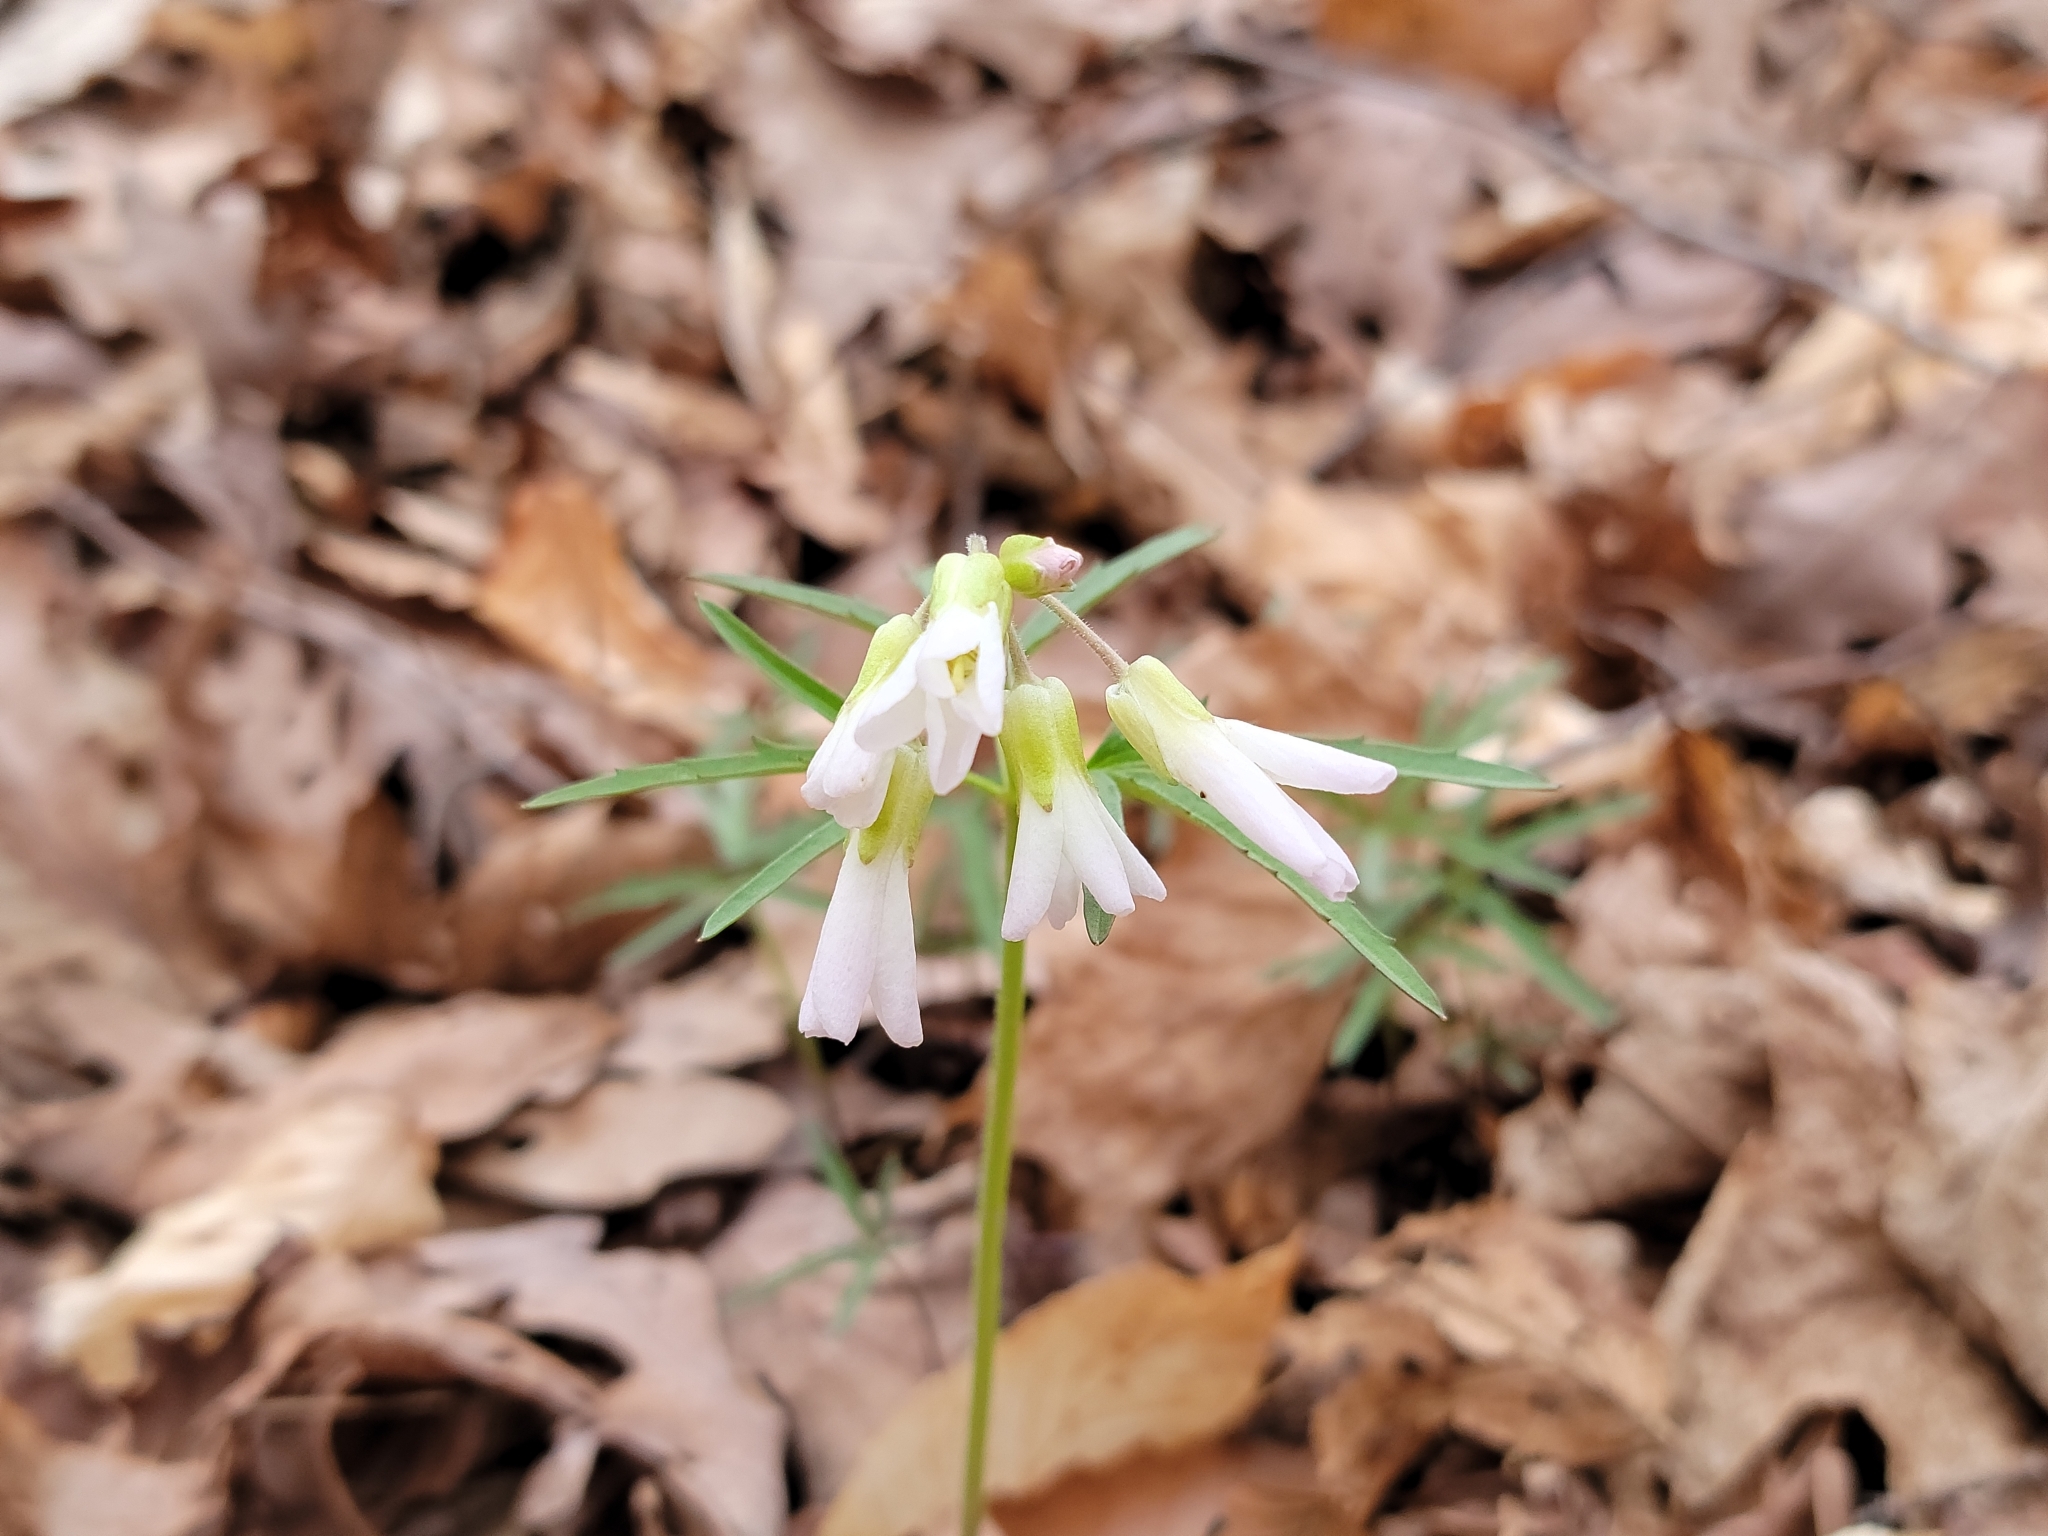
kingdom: Plantae
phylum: Tracheophyta
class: Magnoliopsida
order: Brassicales
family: Brassicaceae
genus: Cardamine
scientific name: Cardamine concatenata
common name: Cut-leaf toothcup
